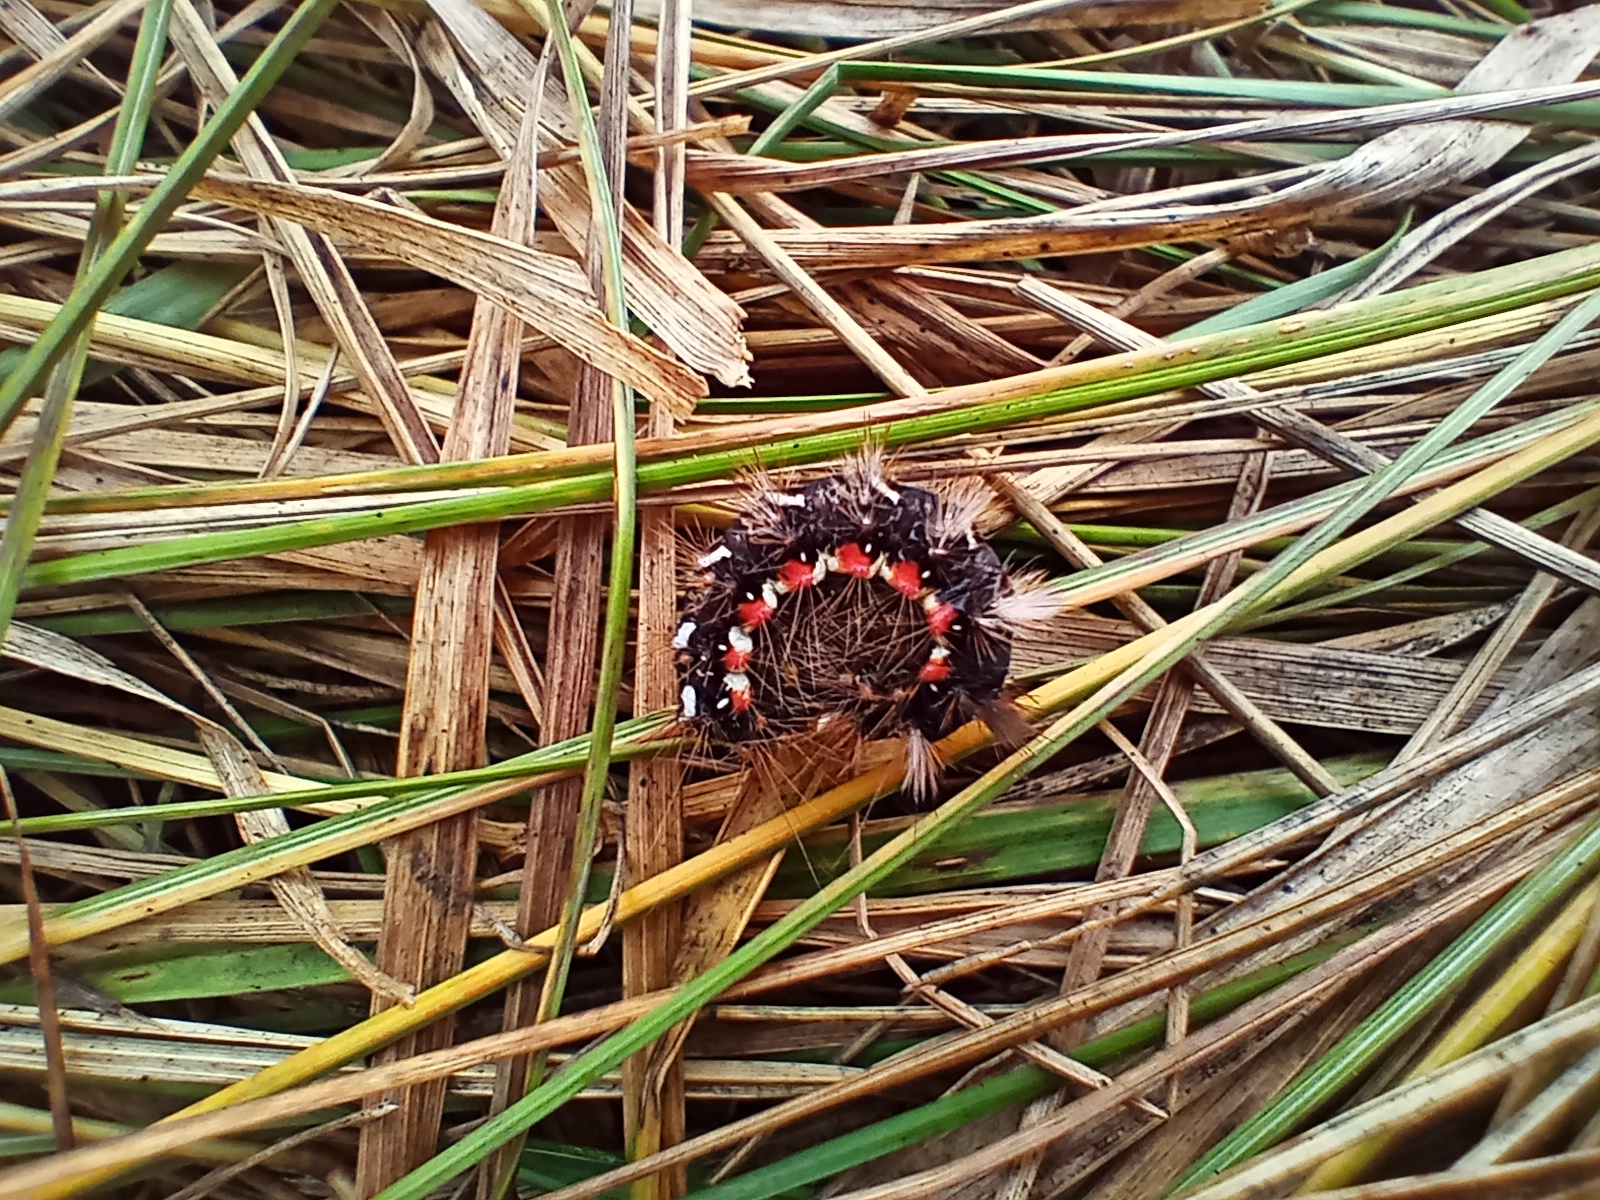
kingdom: Animalia
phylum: Arthropoda
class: Insecta
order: Lepidoptera
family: Noctuidae
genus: Acronicta
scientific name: Acronicta rumicis
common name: Knot grass
